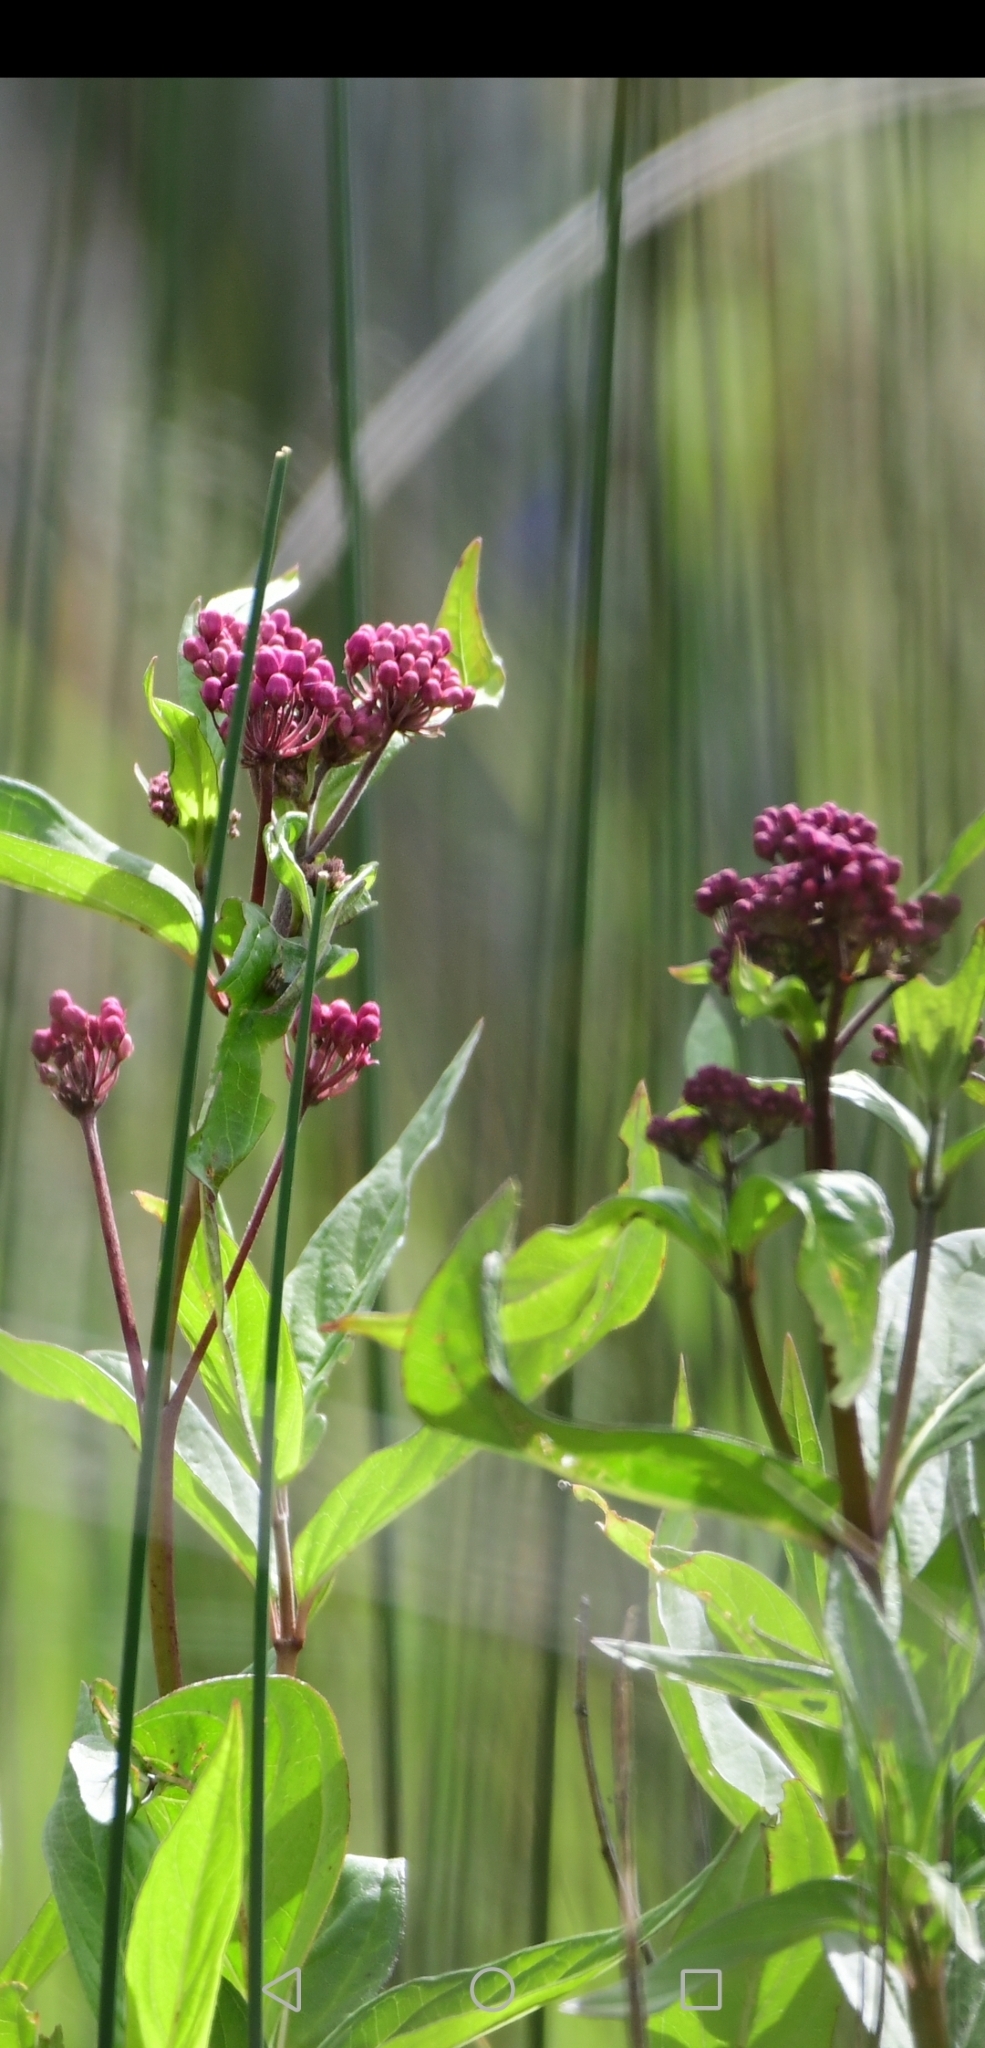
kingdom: Plantae
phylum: Tracheophyta
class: Magnoliopsida
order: Gentianales
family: Apocynaceae
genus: Asclepias
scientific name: Asclepias incarnata
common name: Swamp milkweed
